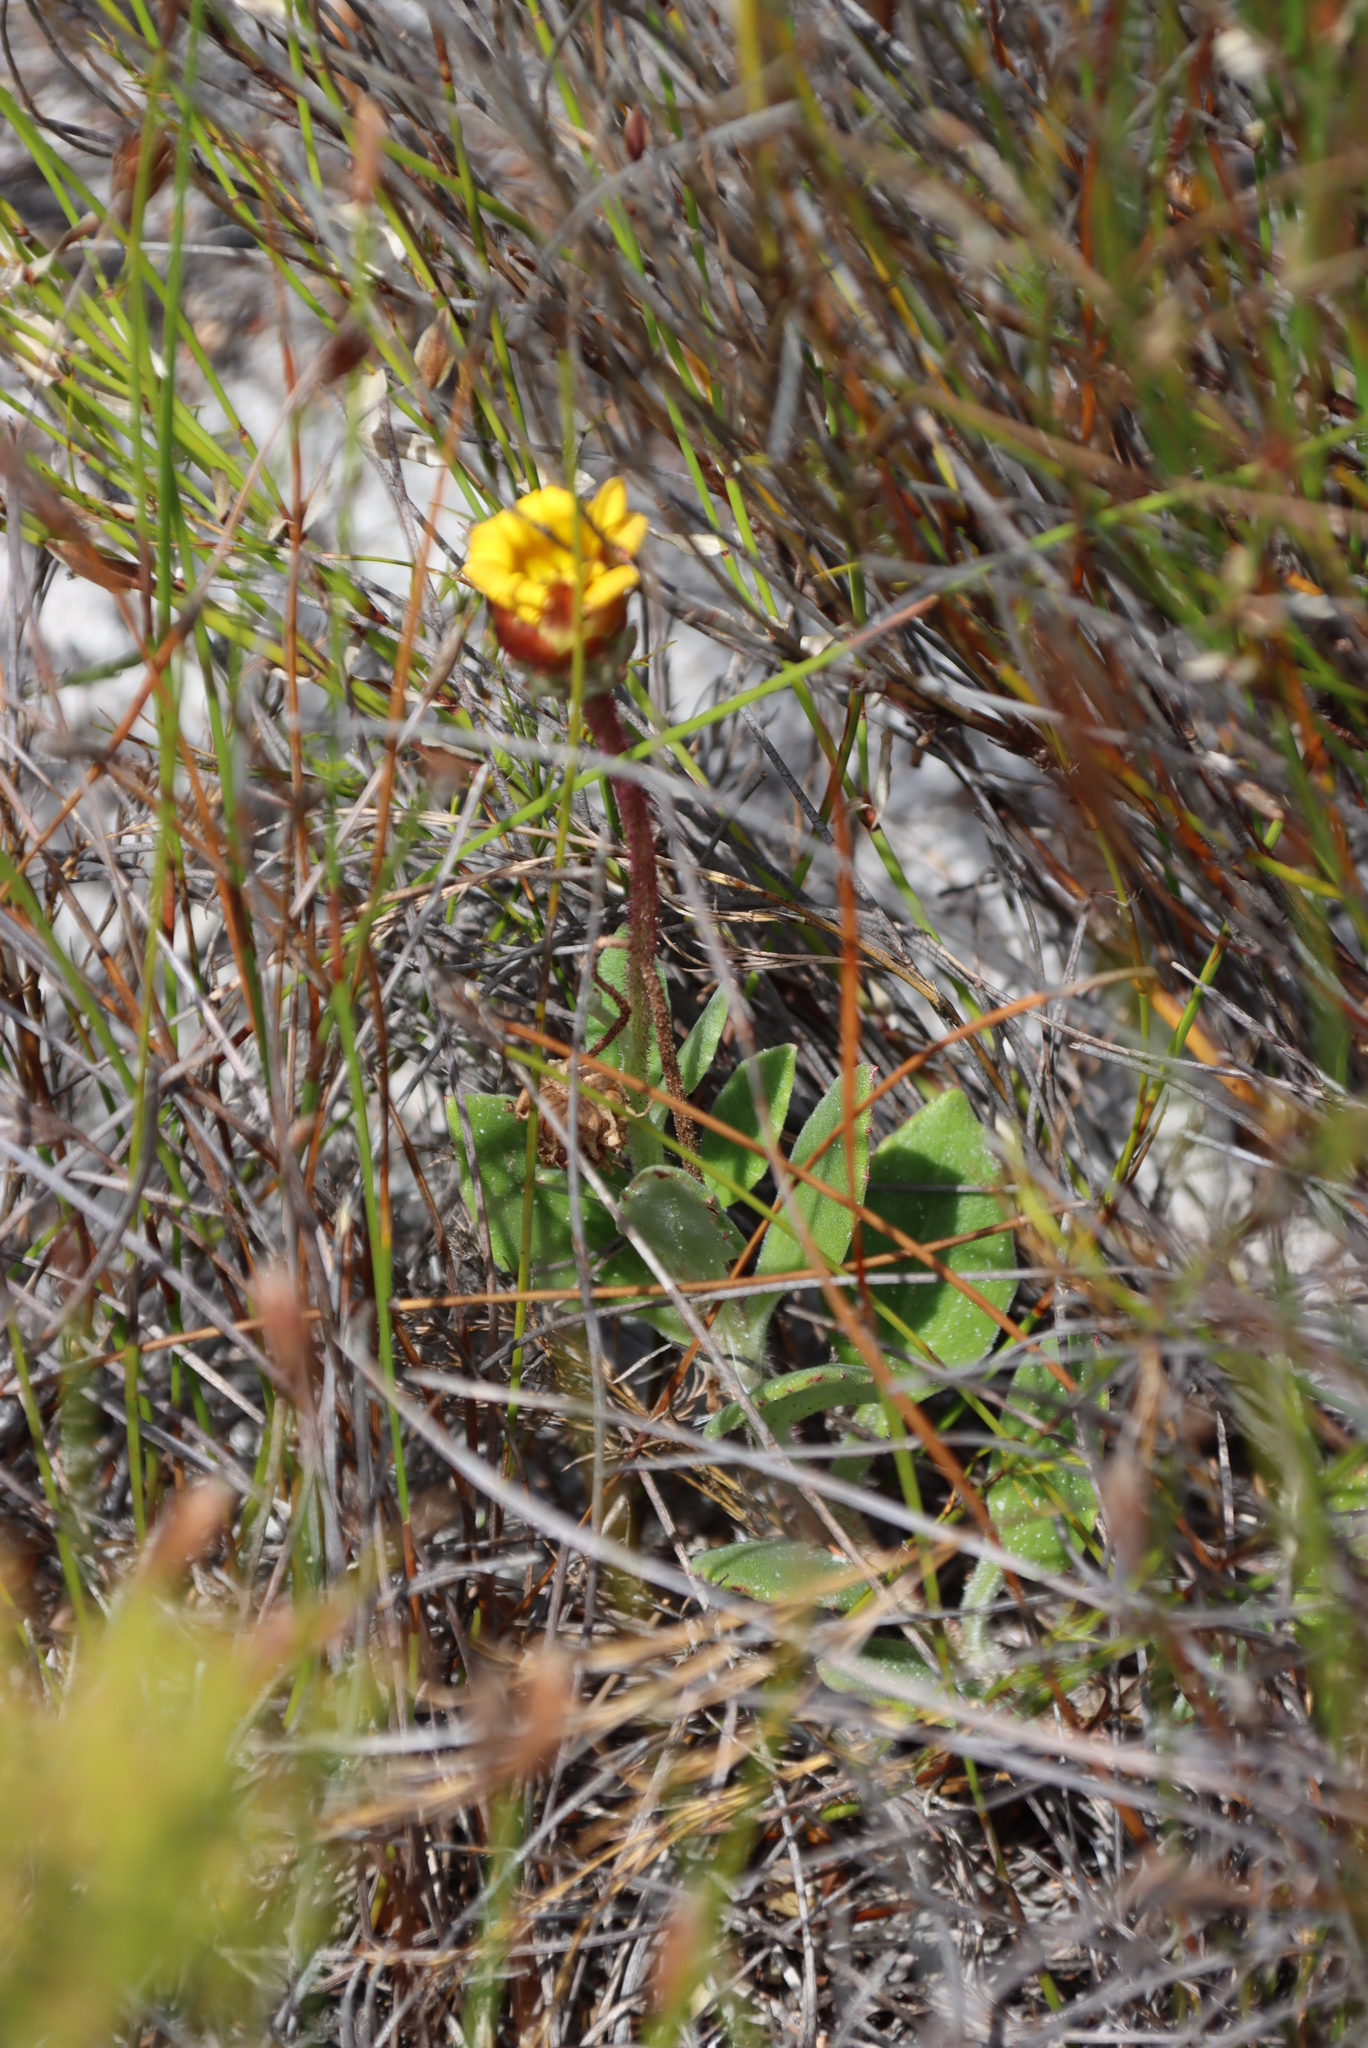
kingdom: Plantae
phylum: Tracheophyta
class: Magnoliopsida
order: Asterales
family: Asteraceae
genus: Arctotis
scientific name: Arctotis angustifolia
